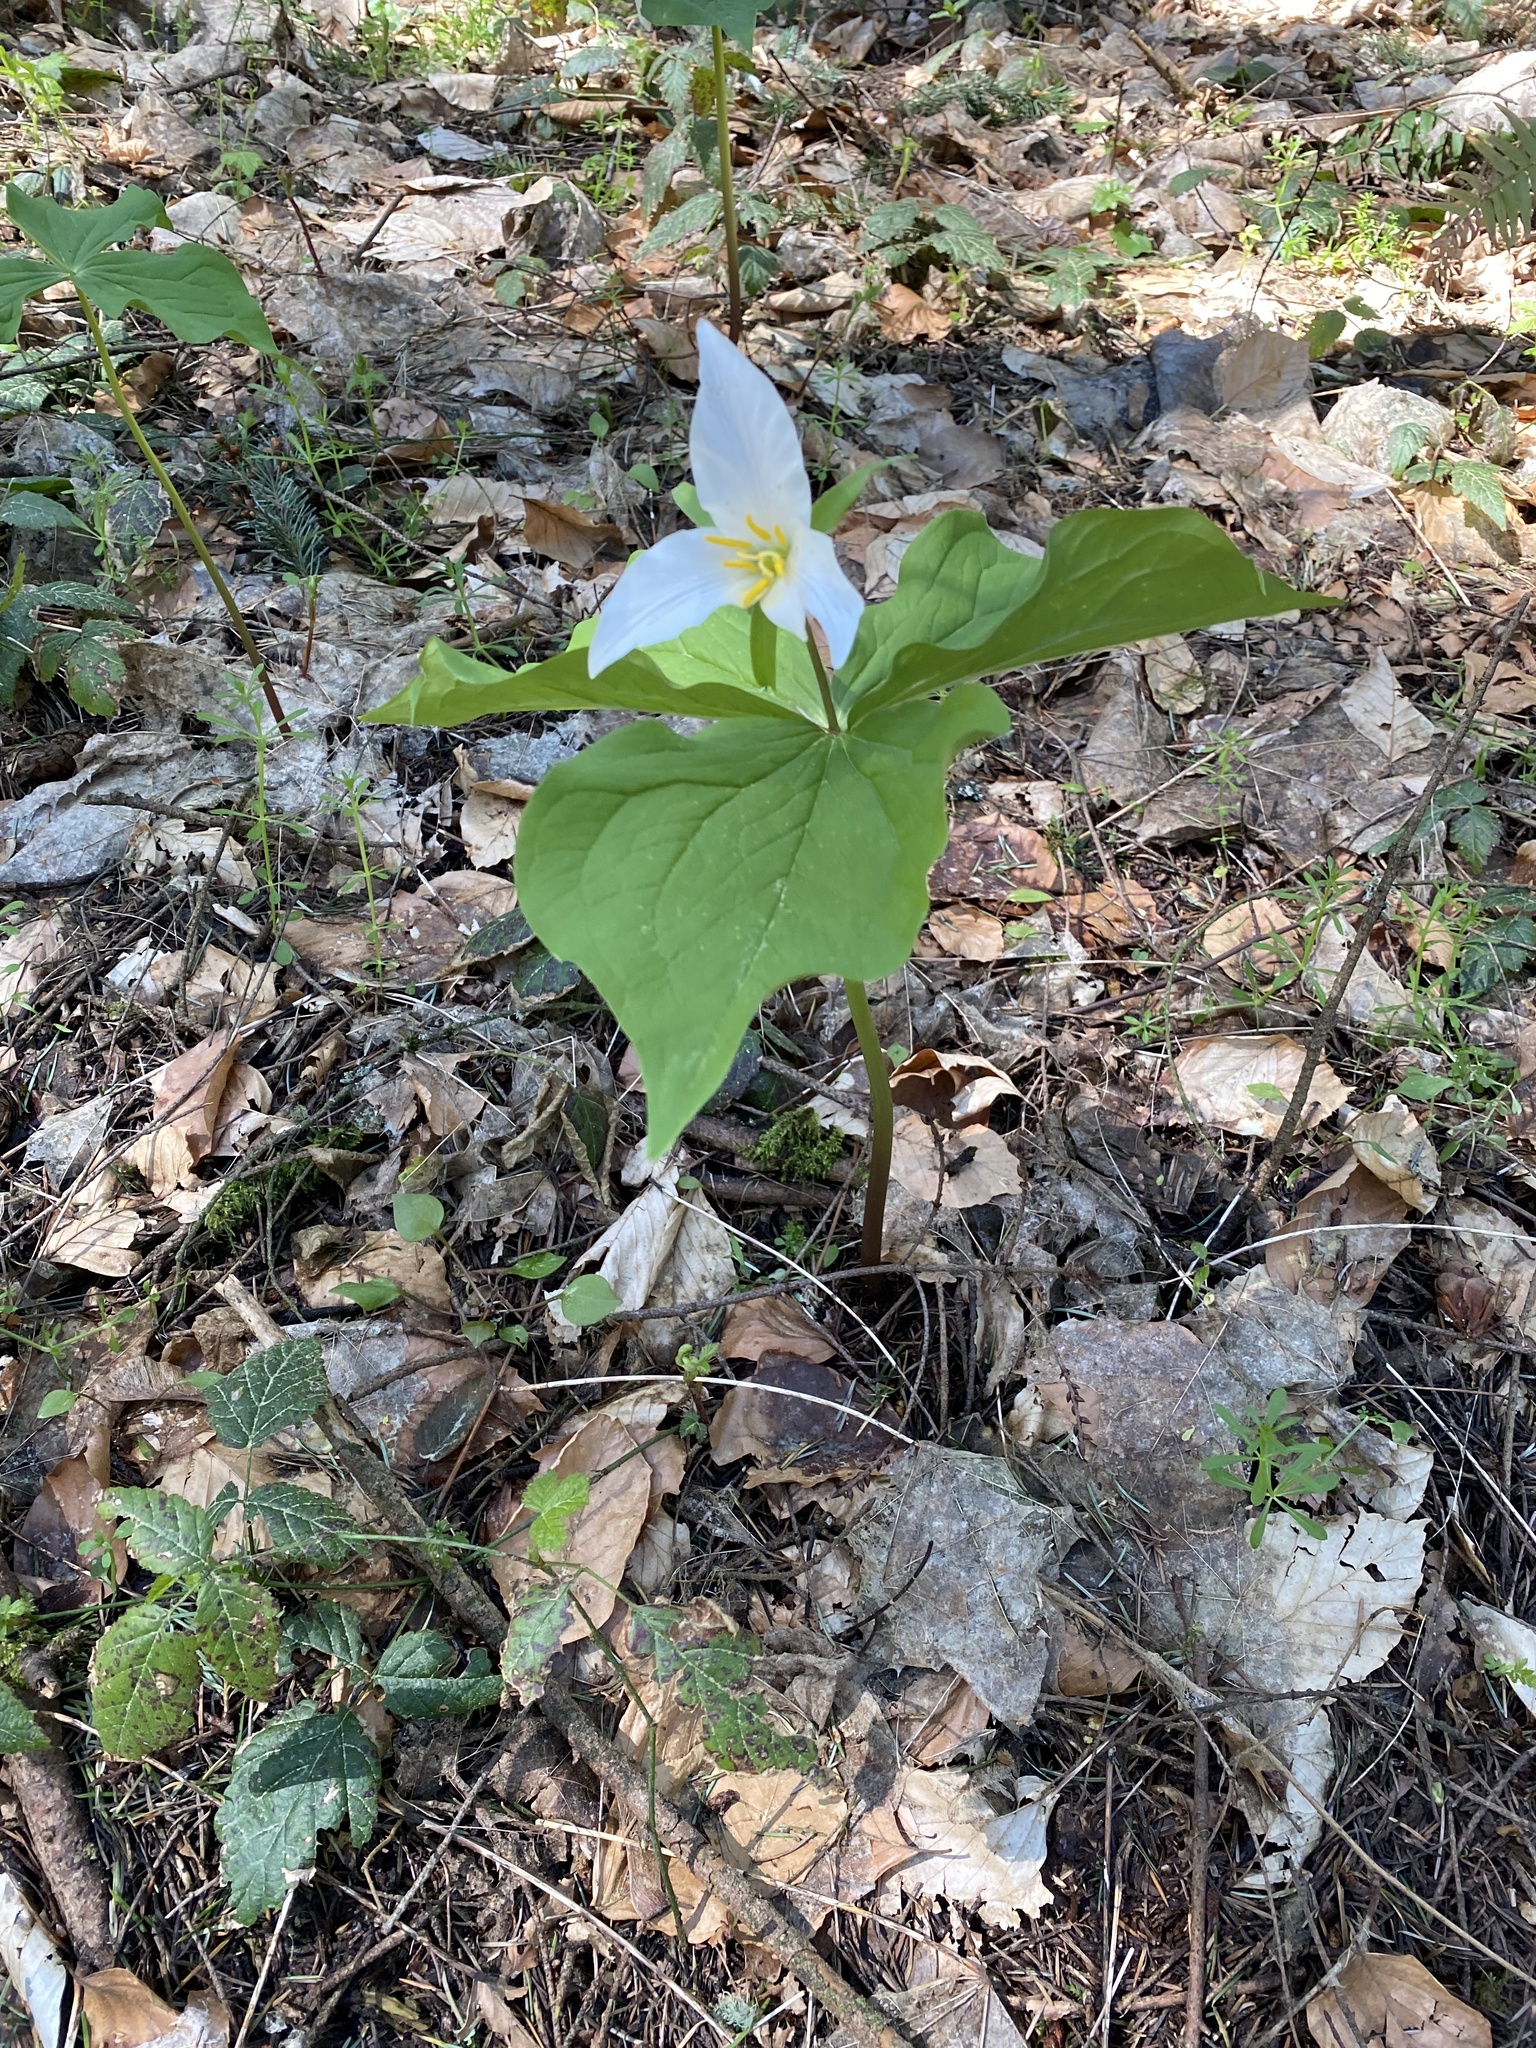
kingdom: Plantae
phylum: Tracheophyta
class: Liliopsida
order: Liliales
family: Melanthiaceae
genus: Trillium
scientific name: Trillium ovatum
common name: Pacific trillium
